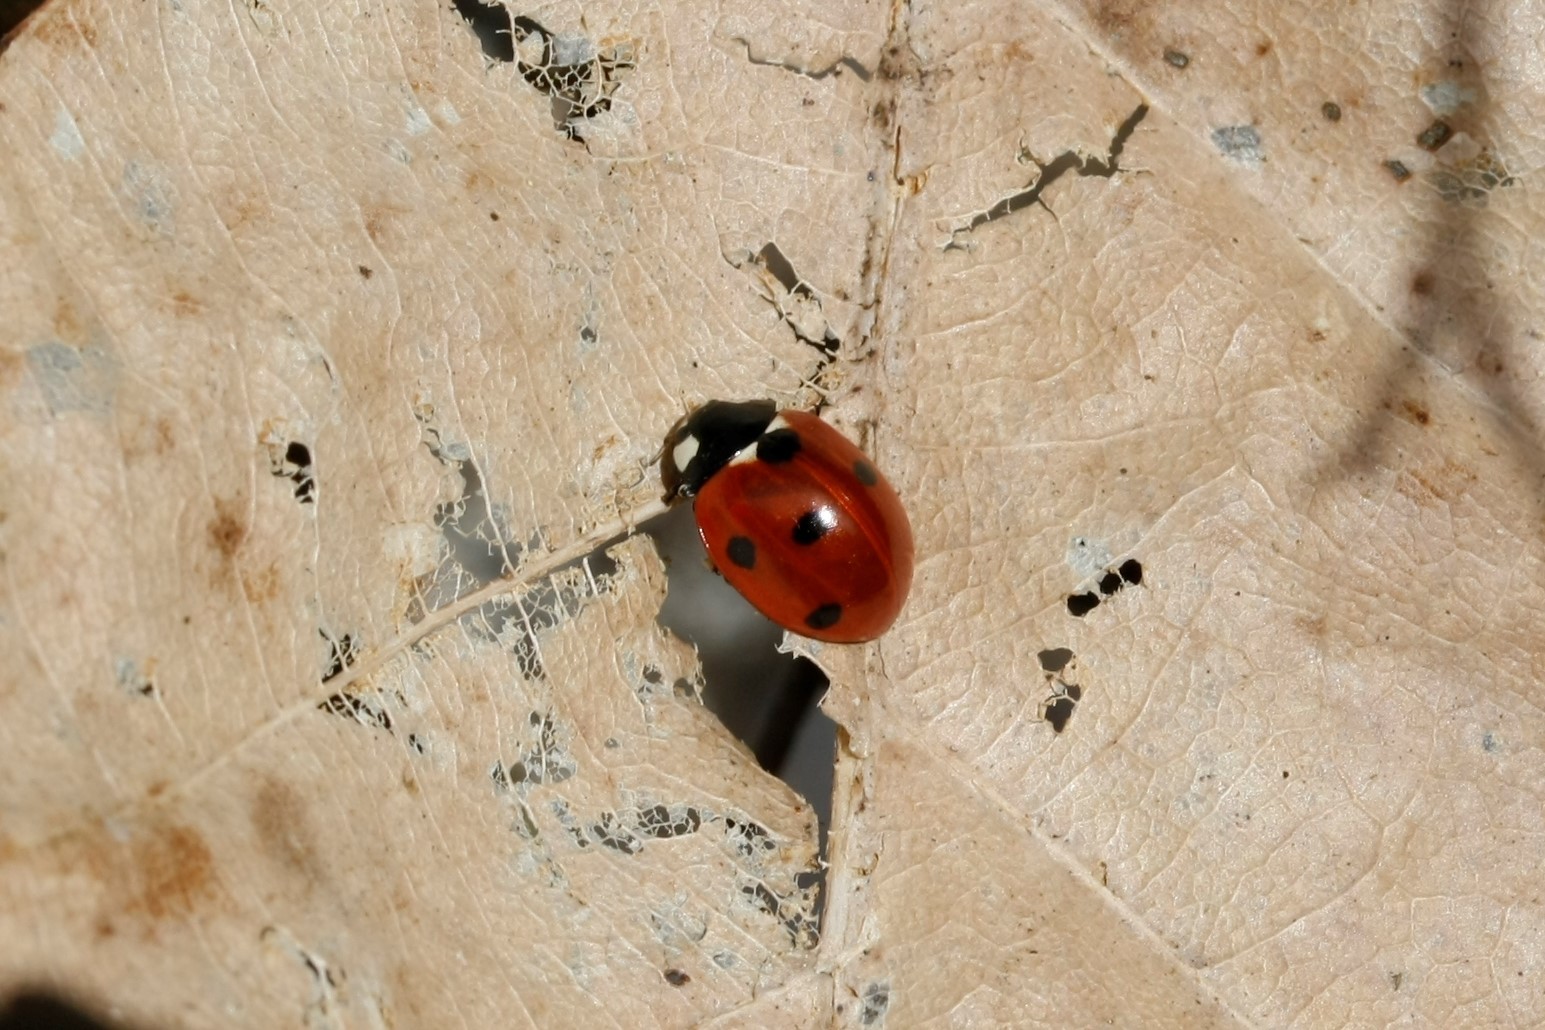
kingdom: Animalia
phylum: Arthropoda
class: Insecta
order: Coleoptera
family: Coccinellidae
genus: Coccinella
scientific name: Coccinella septempunctata
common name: Sevenspotted lady beetle
